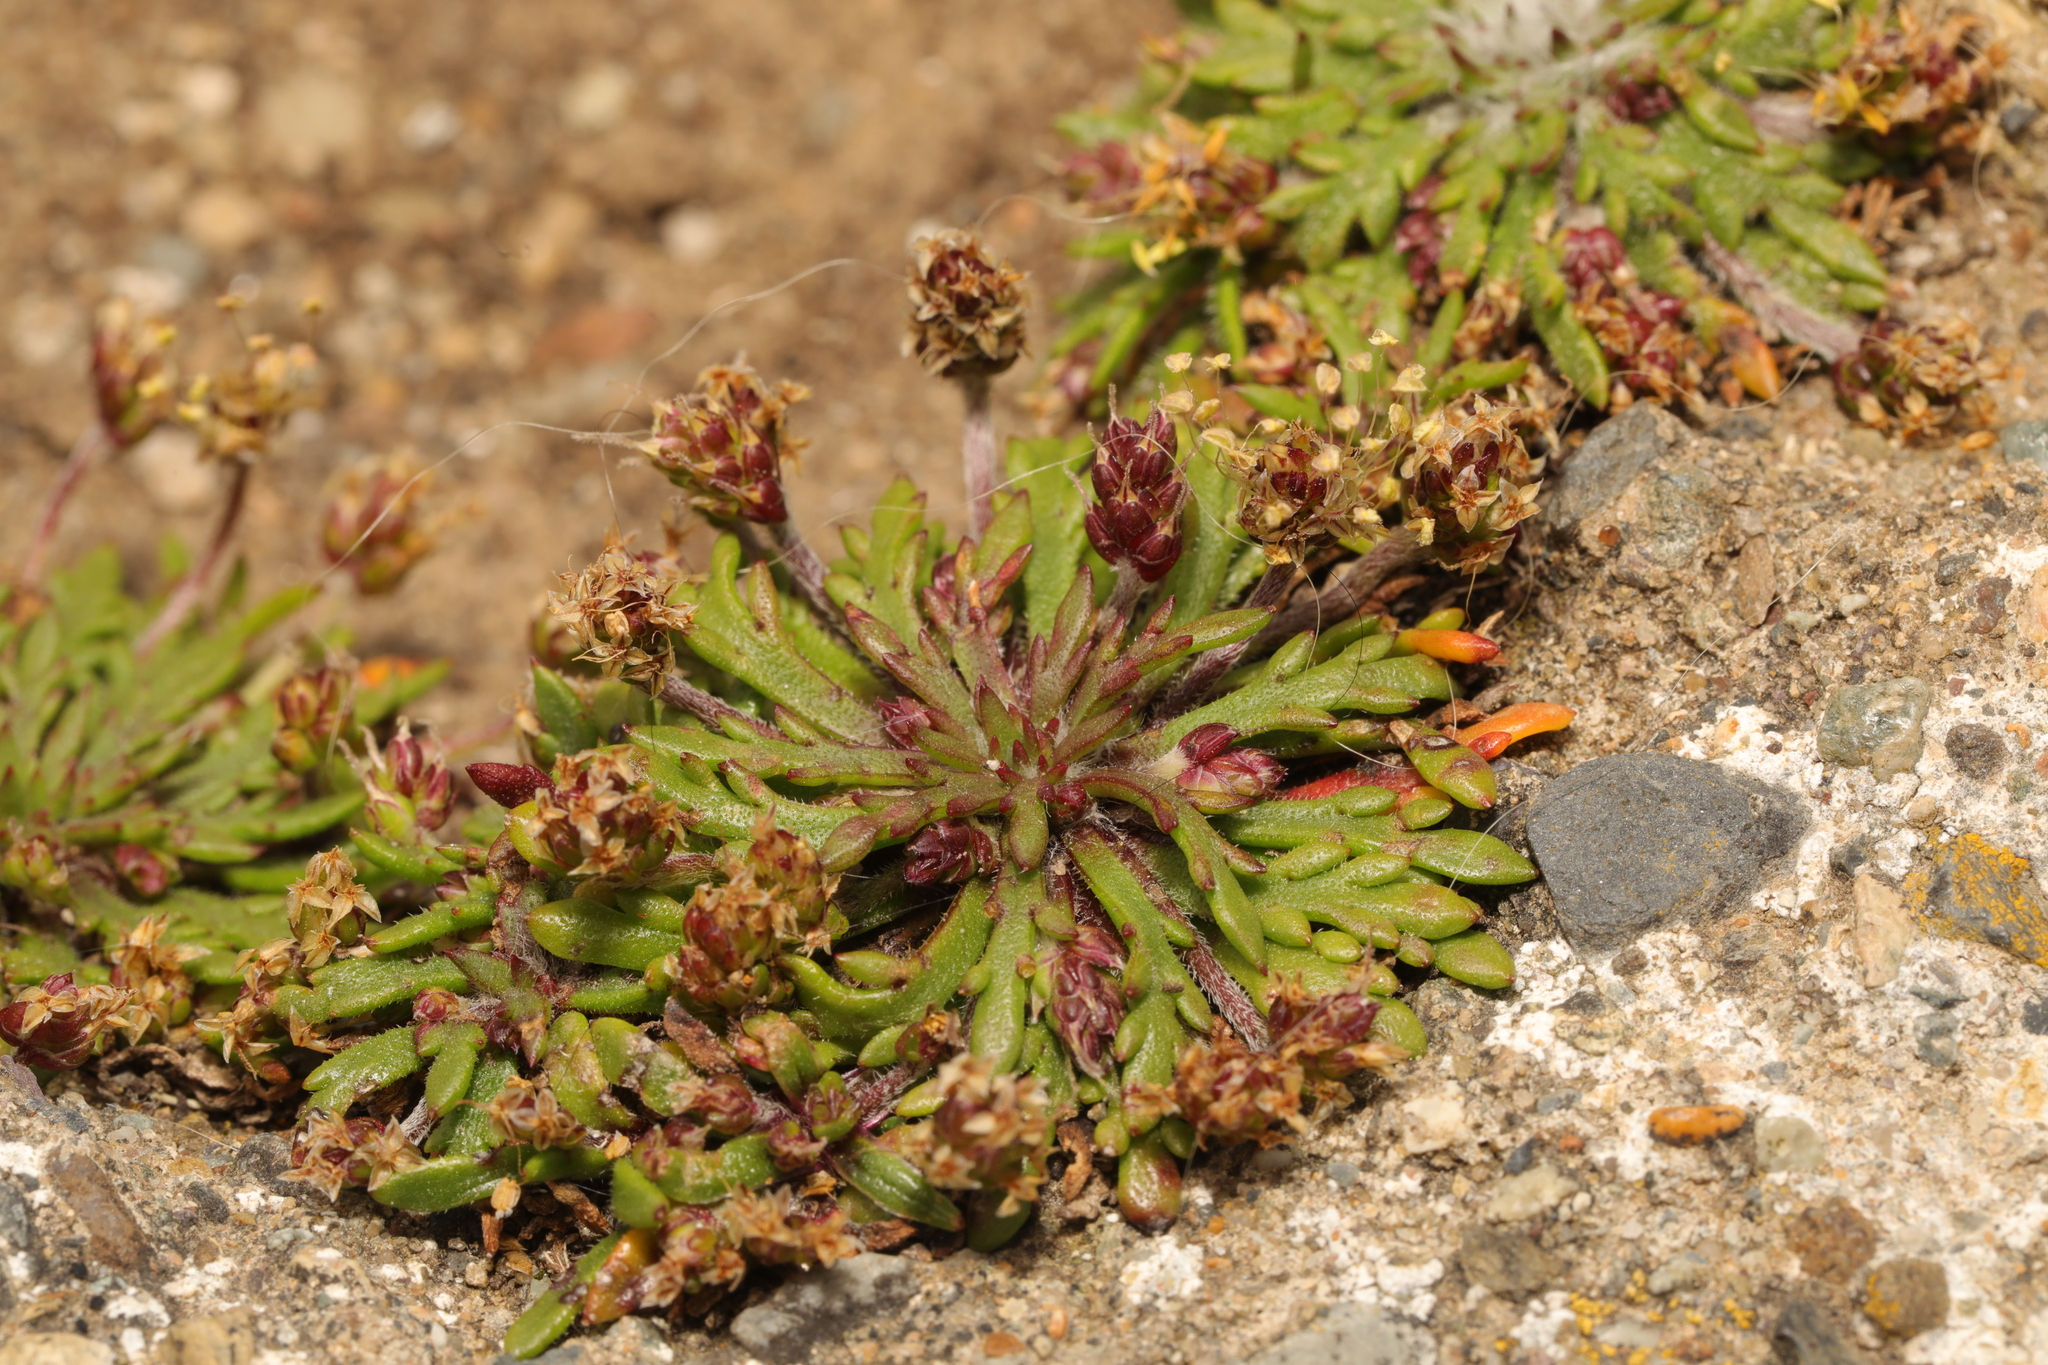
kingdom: Plantae
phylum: Tracheophyta
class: Magnoliopsida
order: Lamiales
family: Plantaginaceae
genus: Plantago
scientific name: Plantago coronopus
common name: Buck's-horn plantain
